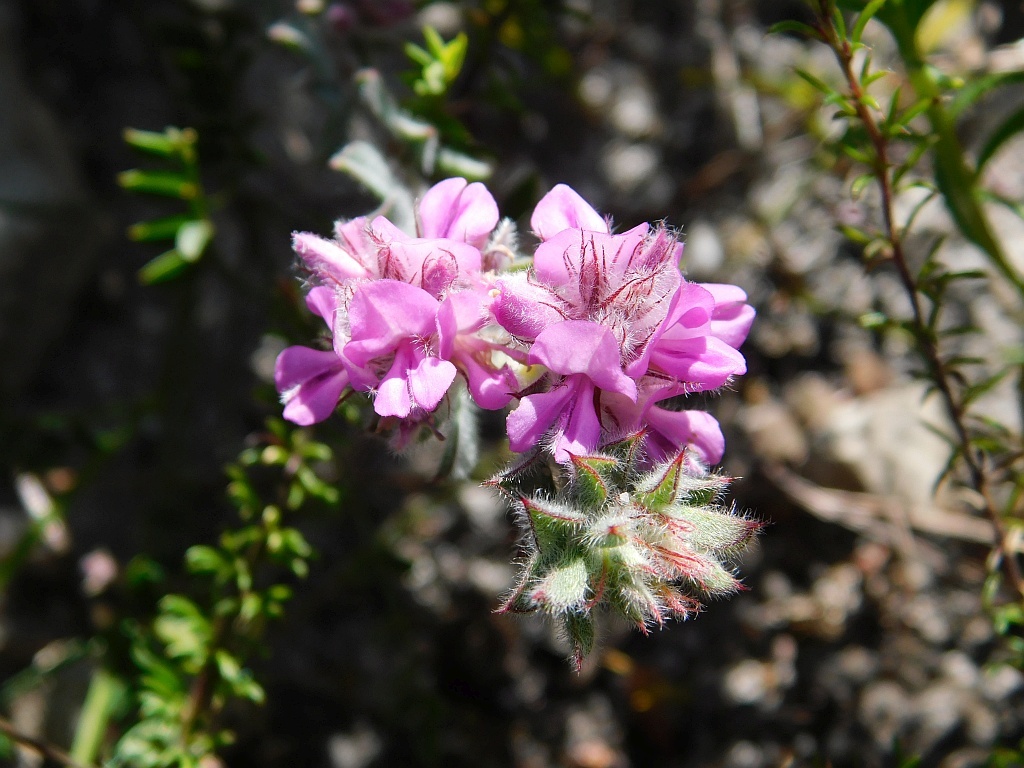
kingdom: Plantae
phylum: Tracheophyta
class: Magnoliopsida
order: Fabales
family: Fabaceae
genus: Indigofera
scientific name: Indigofera glomerata
